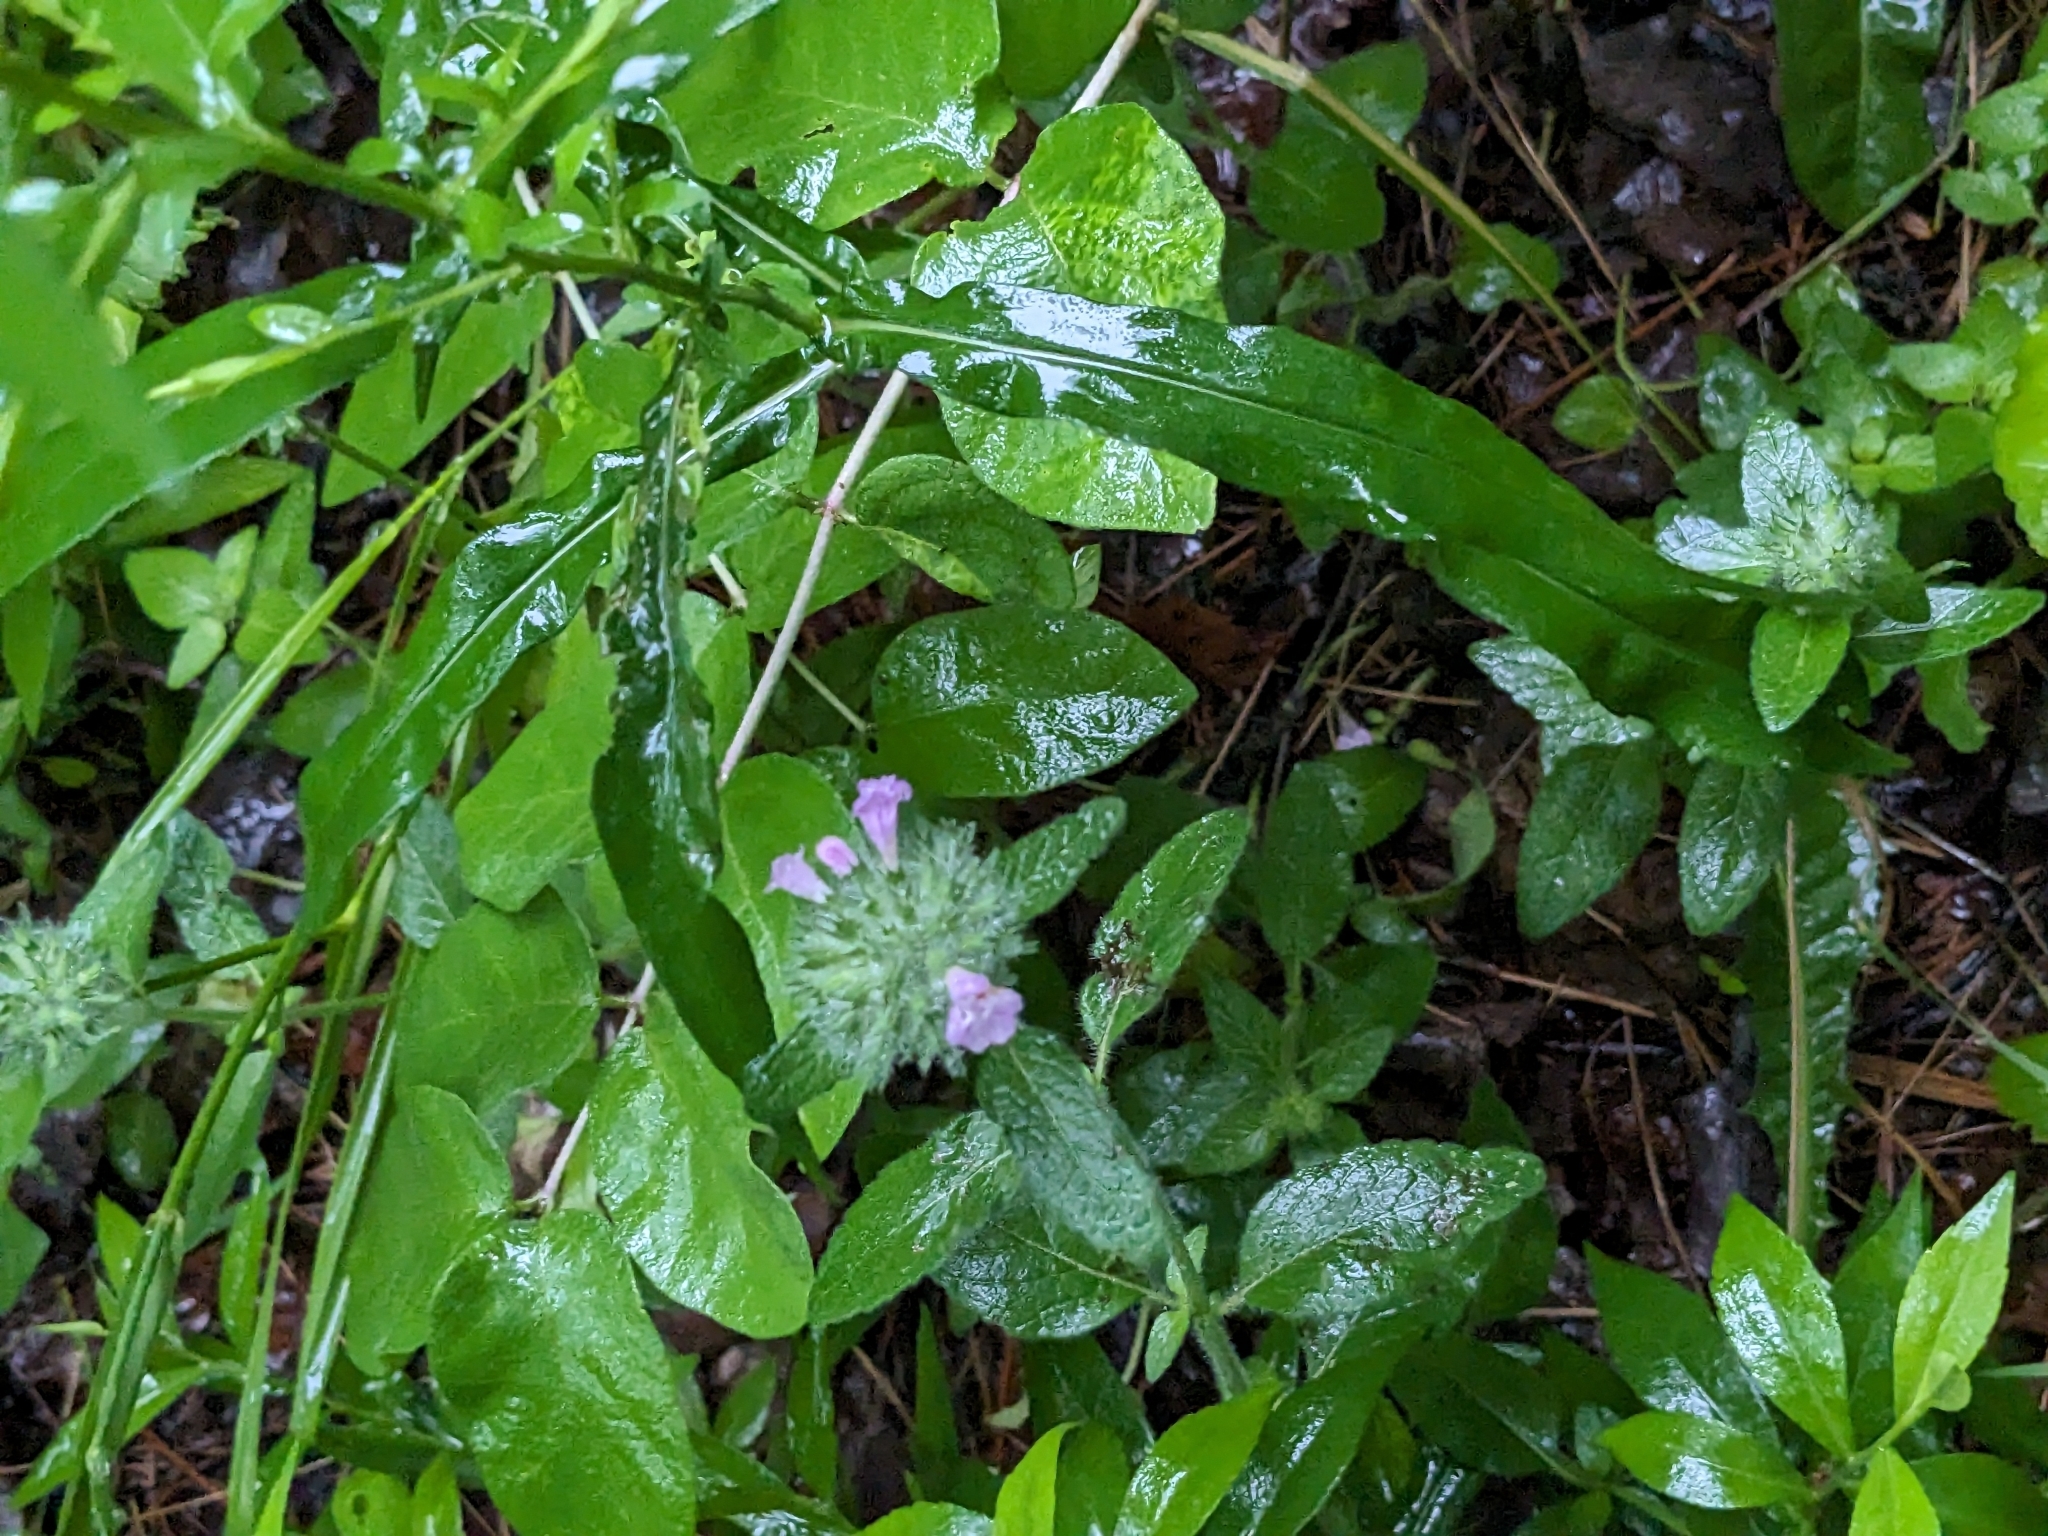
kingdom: Plantae
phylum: Tracheophyta
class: Magnoliopsida
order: Lamiales
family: Lamiaceae
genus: Clinopodium
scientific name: Clinopodium vulgare
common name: Wild basil
